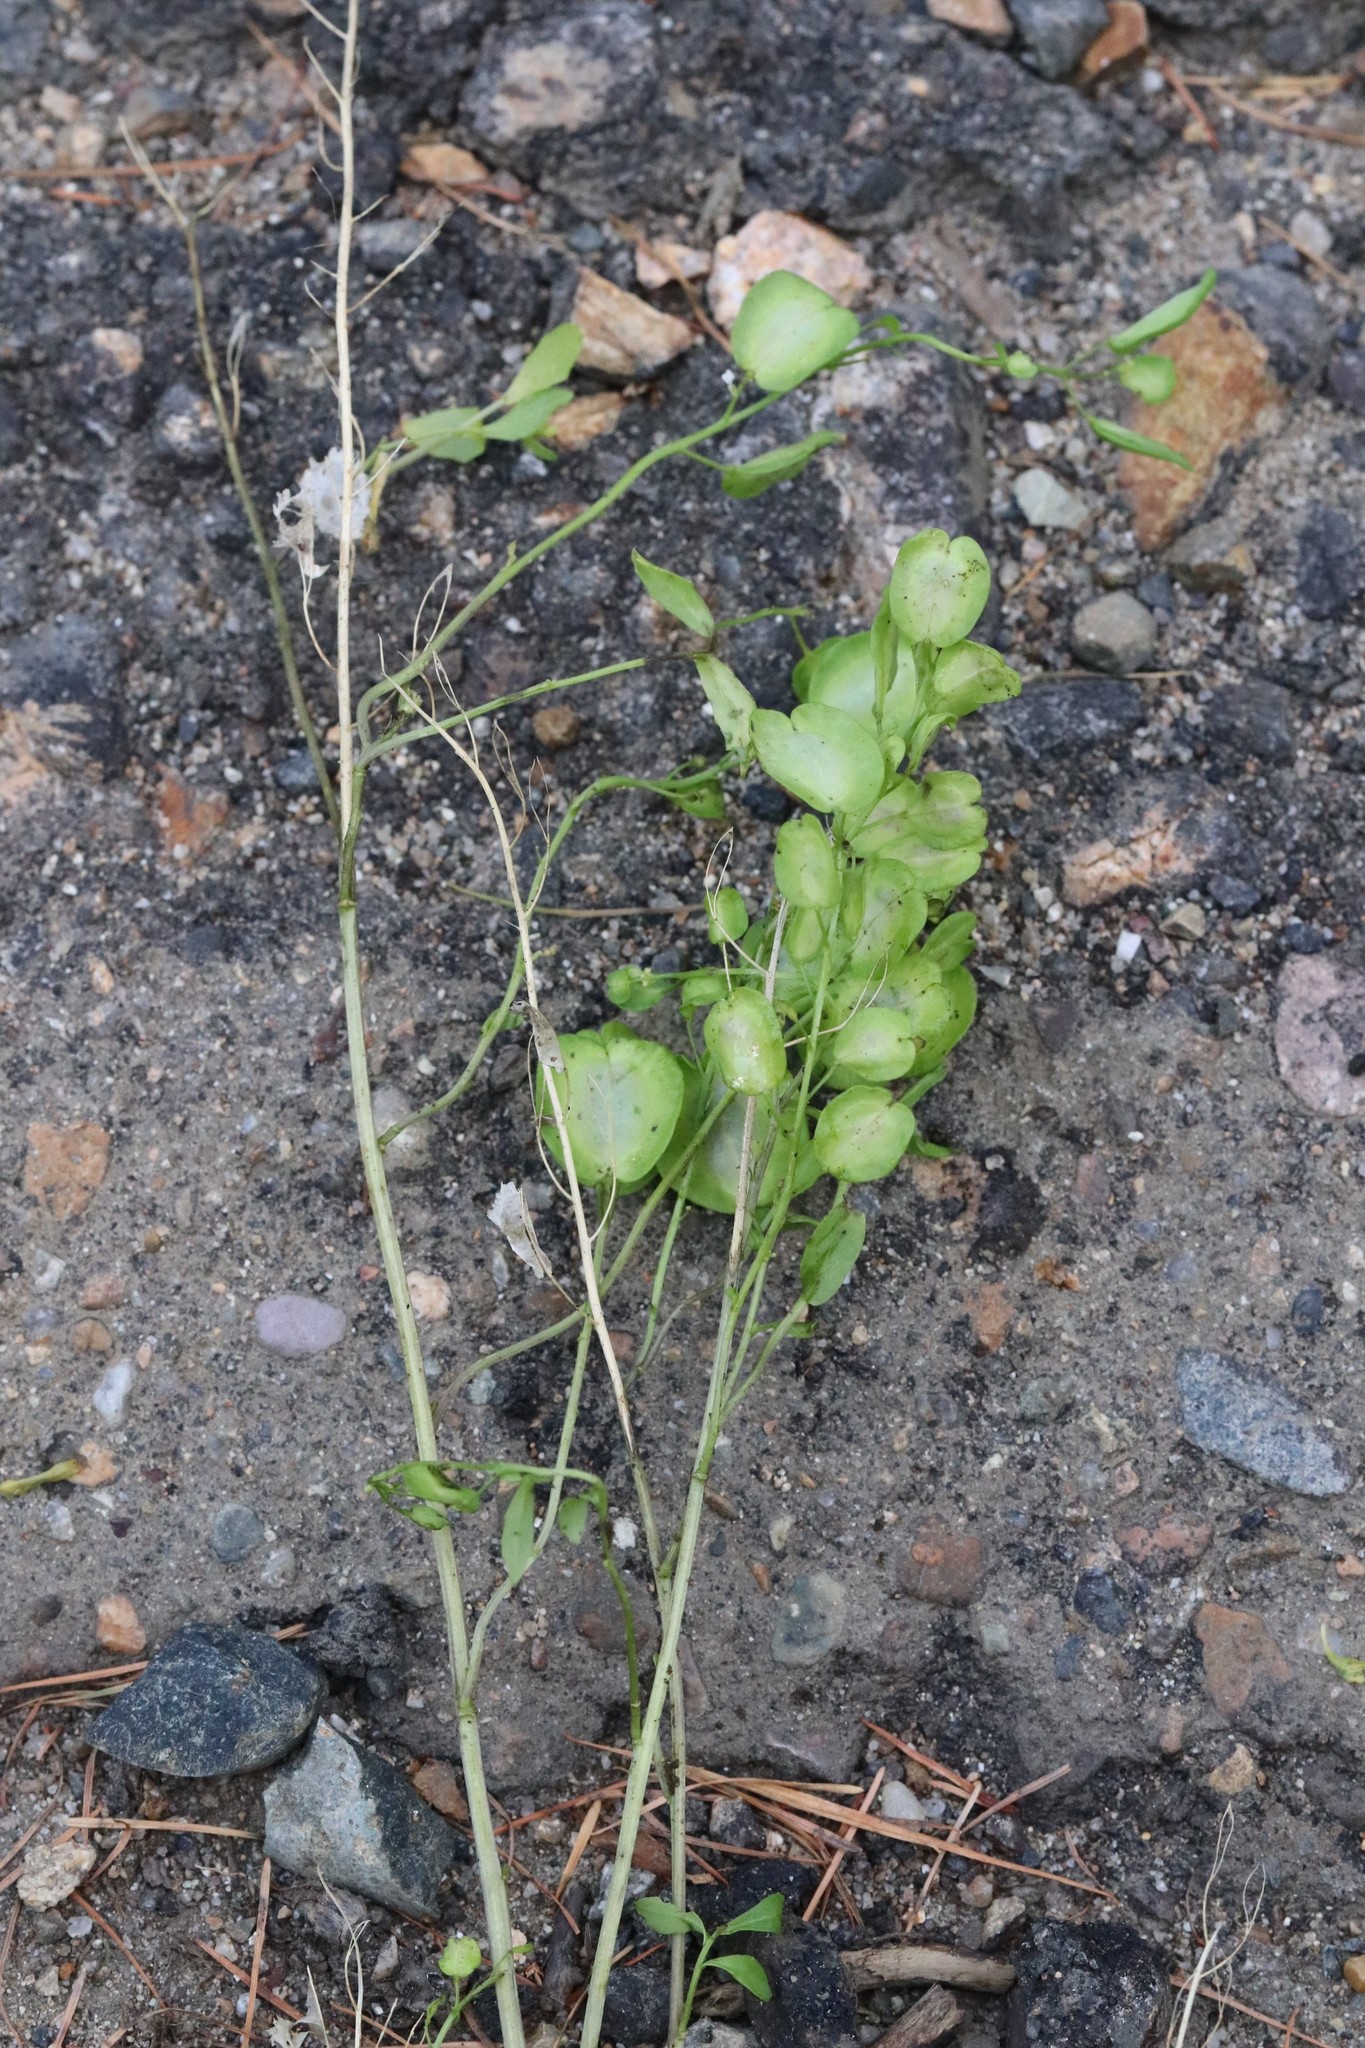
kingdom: Plantae
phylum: Tracheophyta
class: Magnoliopsida
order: Brassicales
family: Brassicaceae
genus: Thlaspi
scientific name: Thlaspi arvense
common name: Field pennycress
